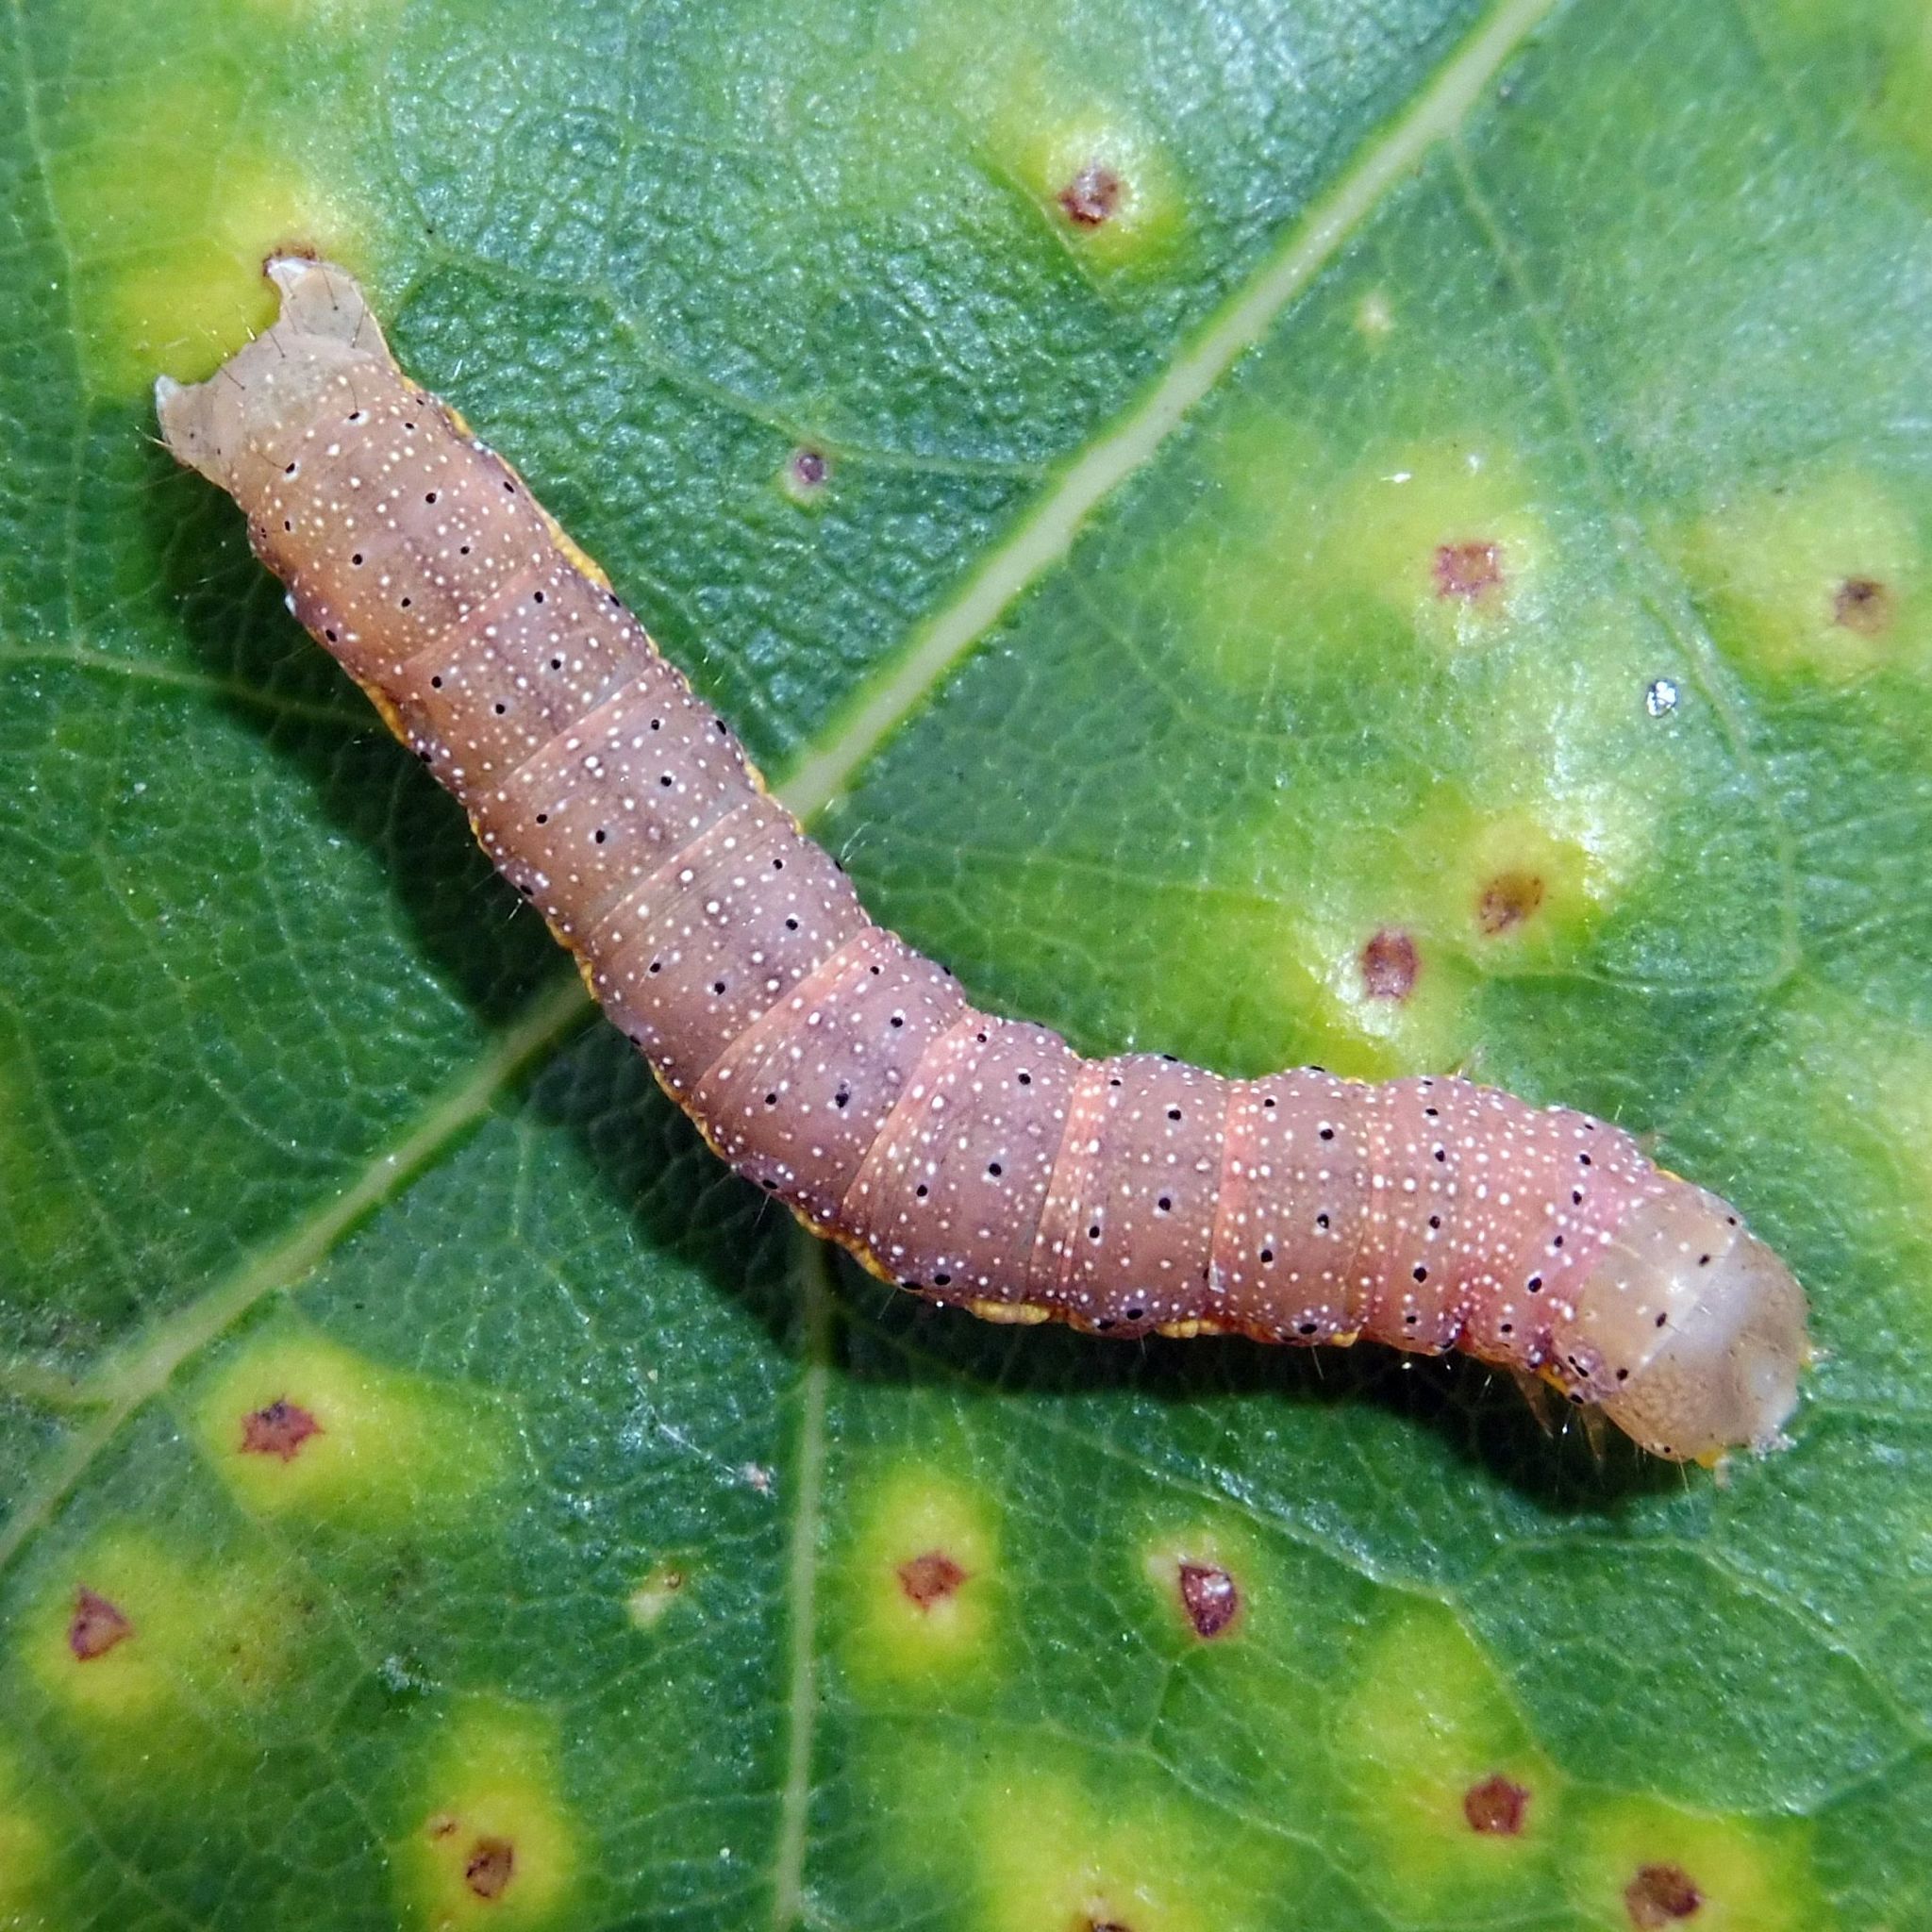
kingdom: Animalia
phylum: Arthropoda
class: Insecta
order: Lepidoptera
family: Noctuidae
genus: Lacanobia
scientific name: Lacanobia oleracea
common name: Bright-line brown-eye
